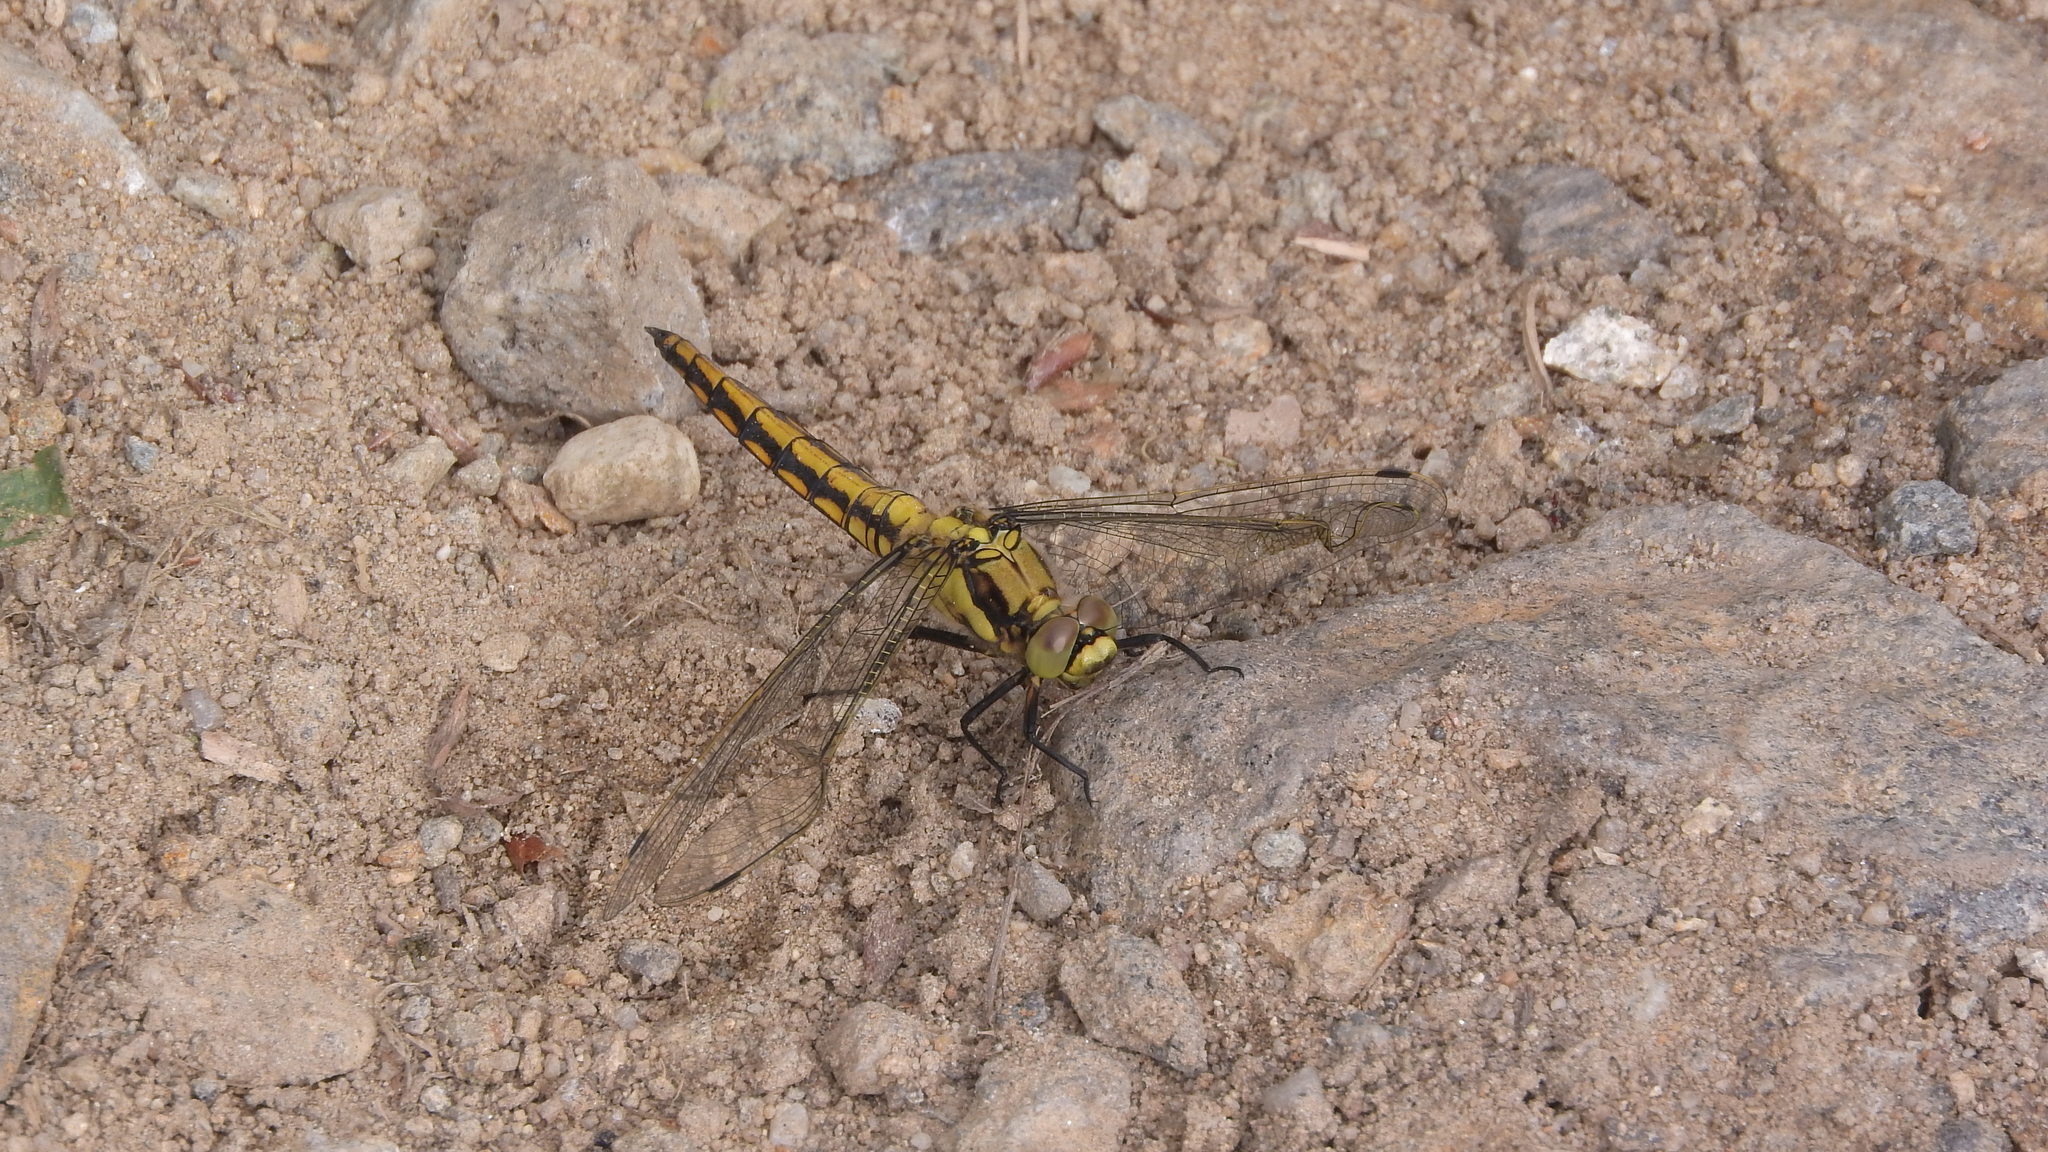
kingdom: Animalia
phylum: Arthropoda
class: Insecta
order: Odonata
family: Libellulidae
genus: Orthetrum
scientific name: Orthetrum cancellatum
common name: Black-tailed skimmer
